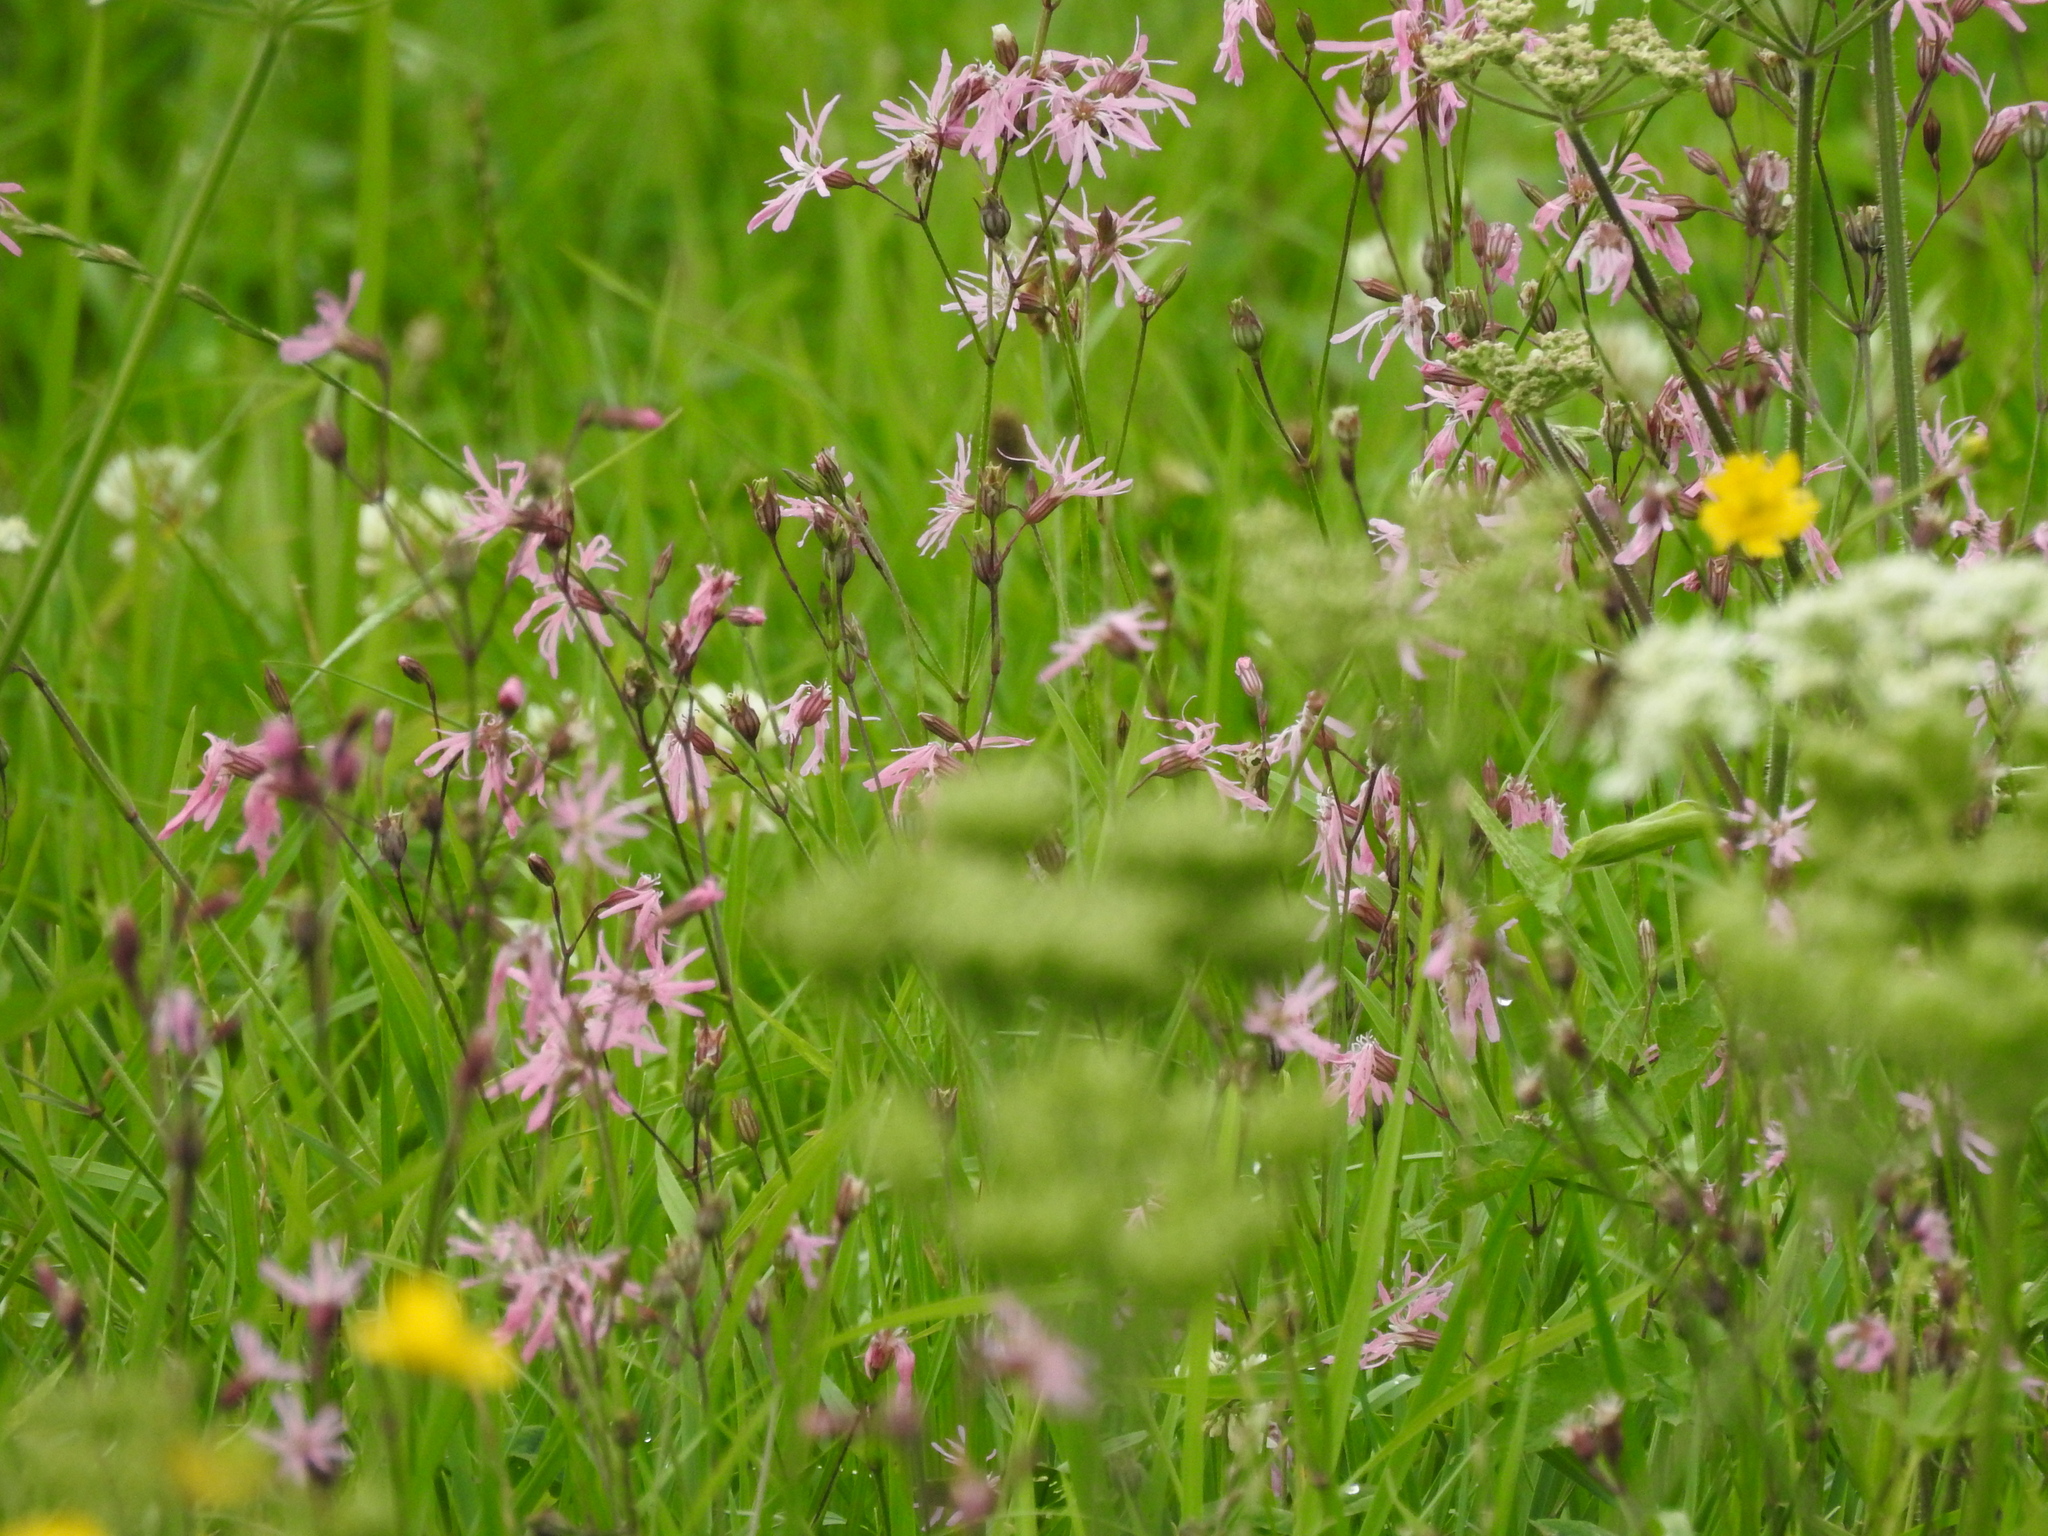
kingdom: Plantae
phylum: Tracheophyta
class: Magnoliopsida
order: Caryophyllales
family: Caryophyllaceae
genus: Silene
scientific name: Silene flos-cuculi
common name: Ragged-robin
